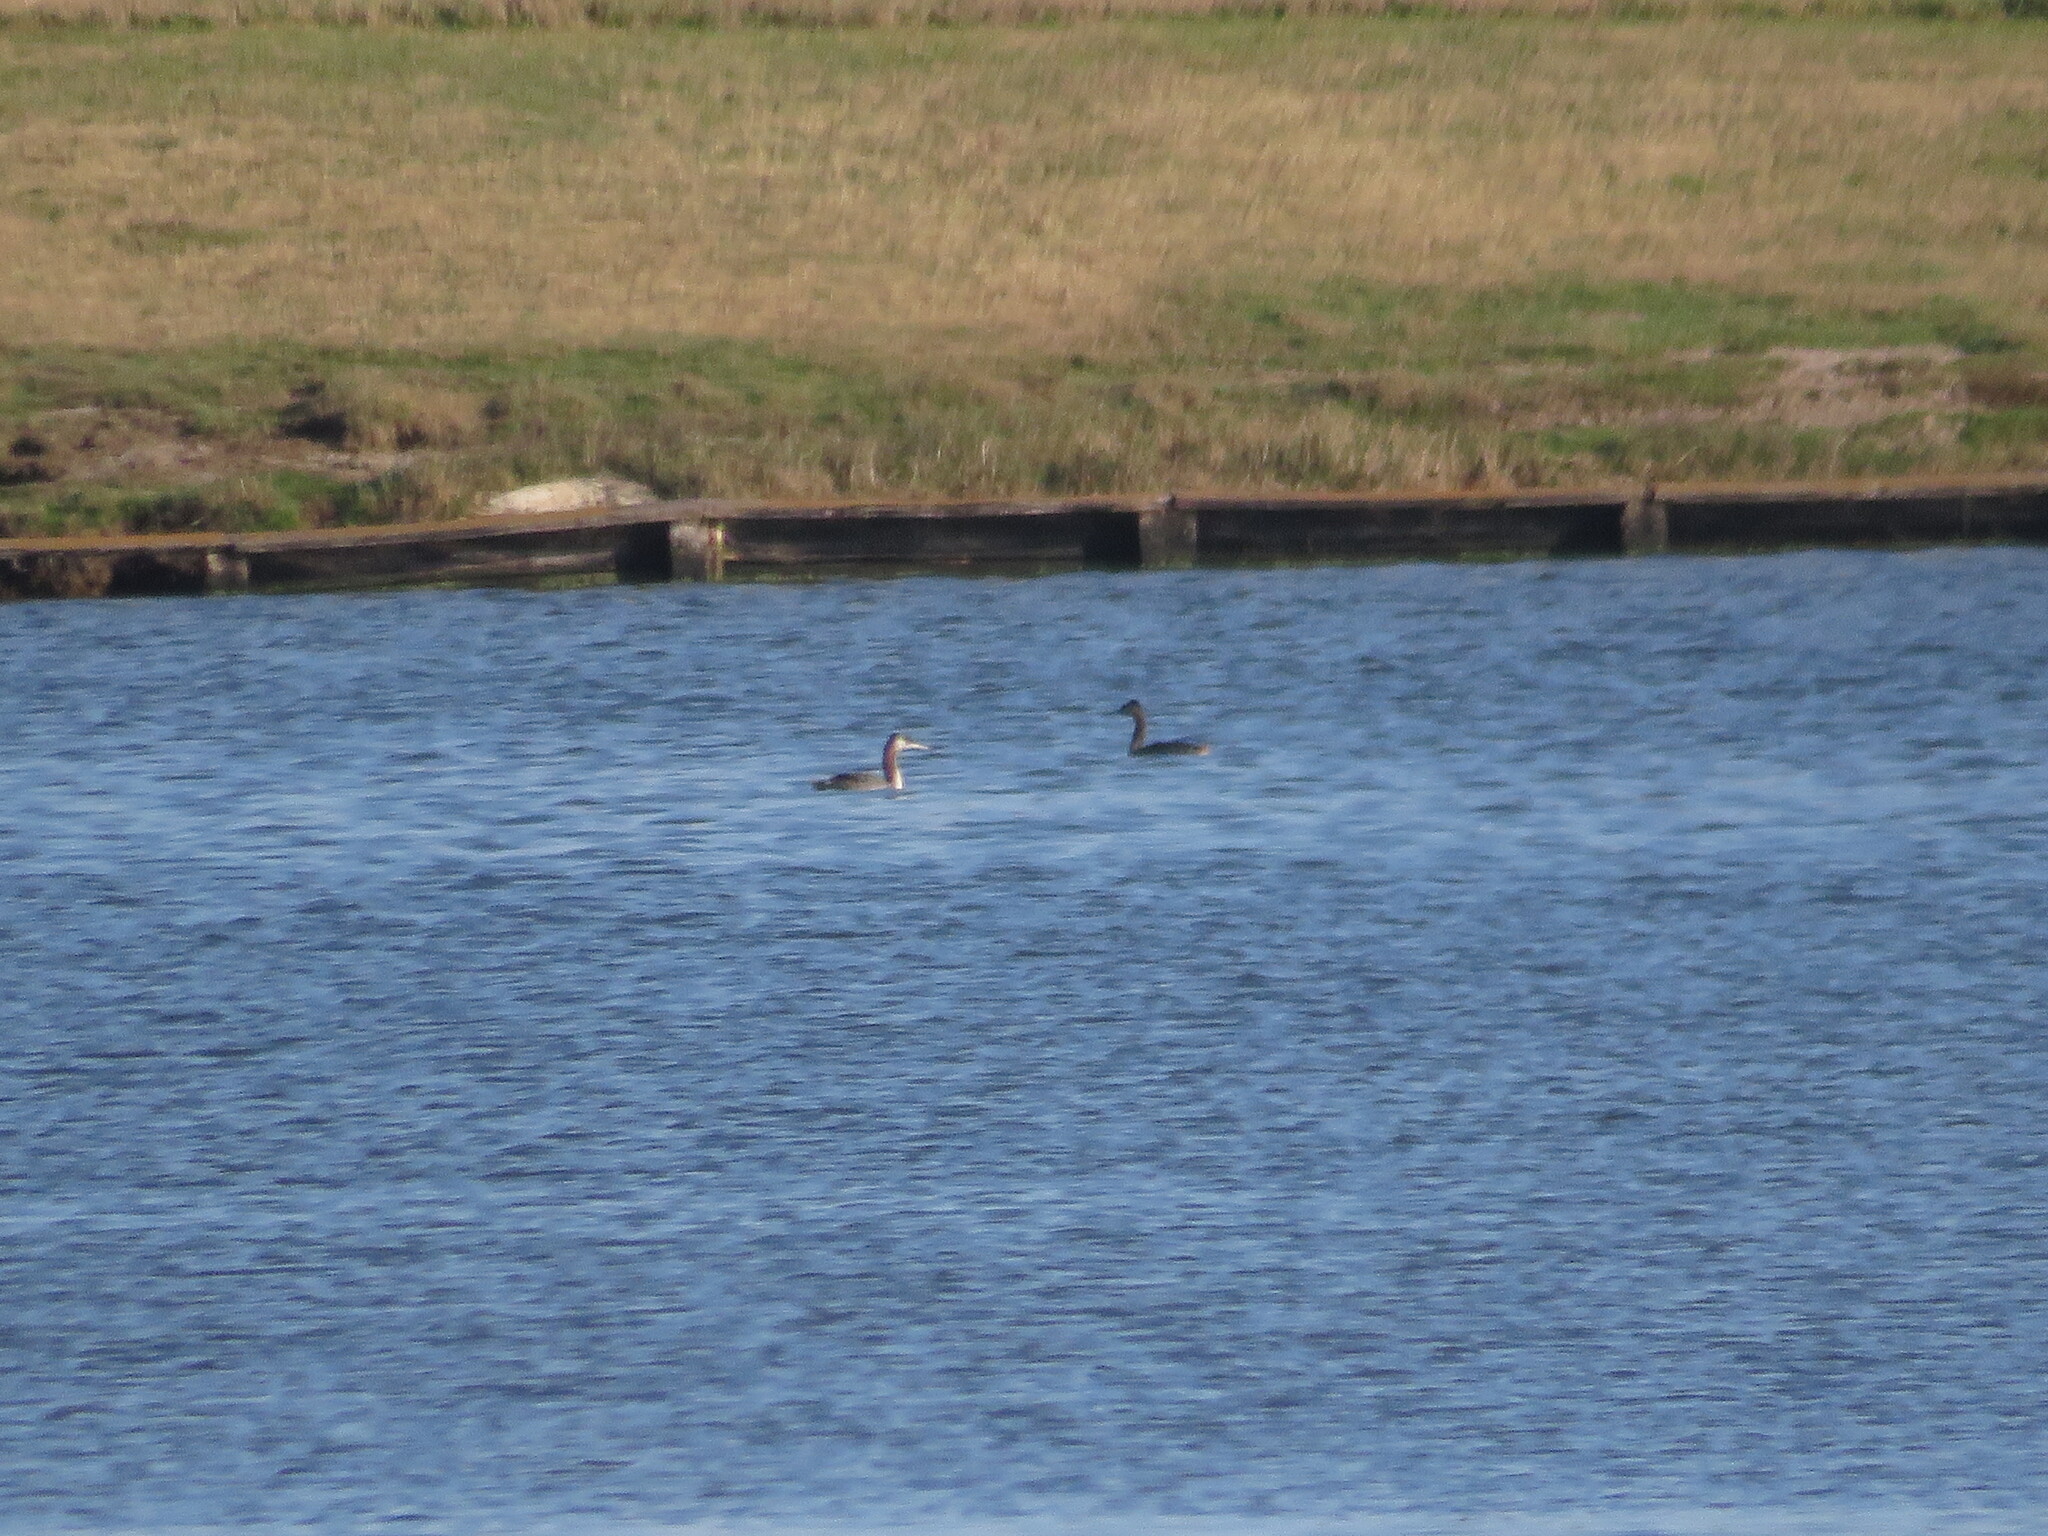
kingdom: Animalia
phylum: Chordata
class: Aves
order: Podicipediformes
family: Podicipedidae
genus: Podiceps
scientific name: Podiceps major
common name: Great grebe
